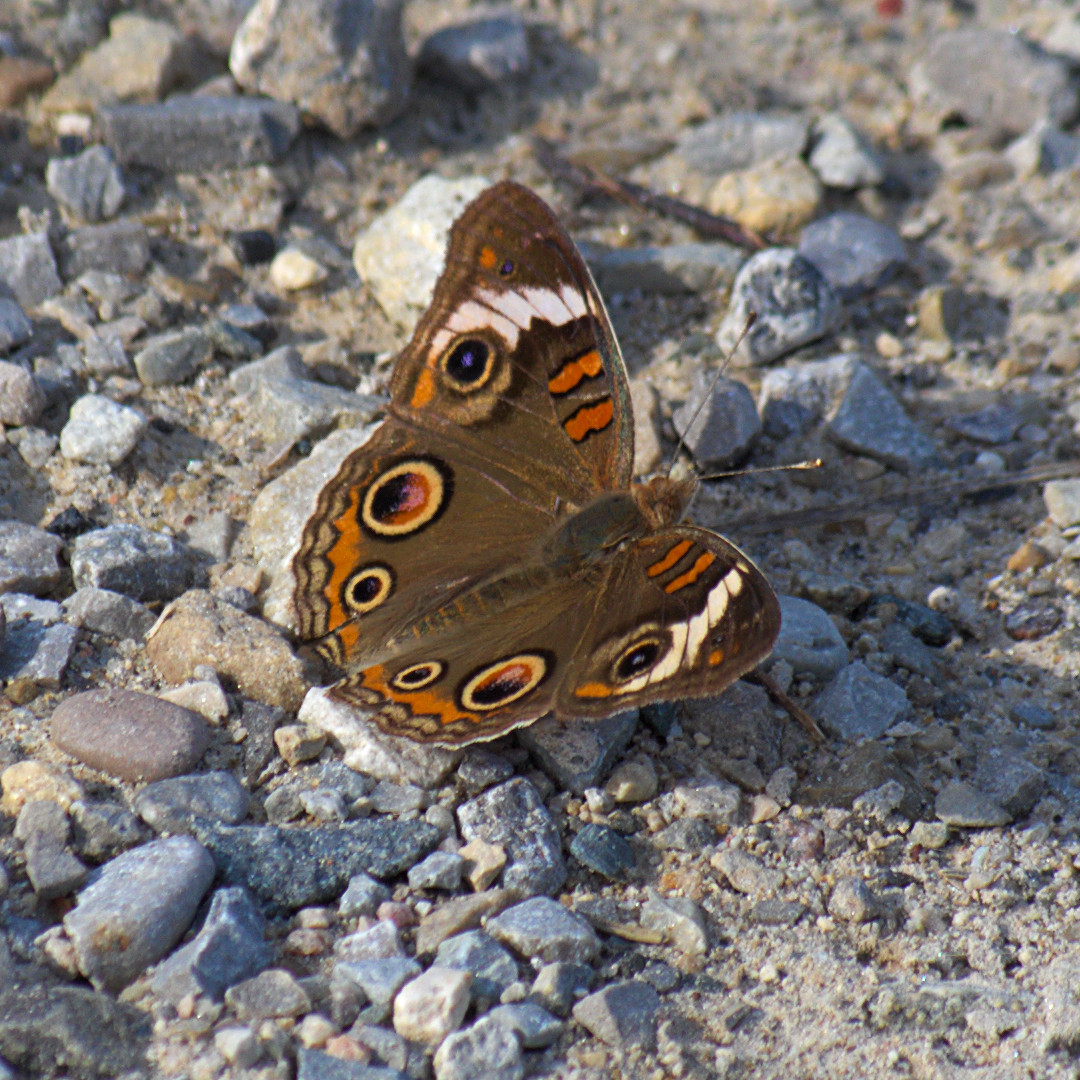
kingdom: Animalia
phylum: Arthropoda
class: Insecta
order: Lepidoptera
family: Nymphalidae
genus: Junonia
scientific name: Junonia coenia
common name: Common buckeye
